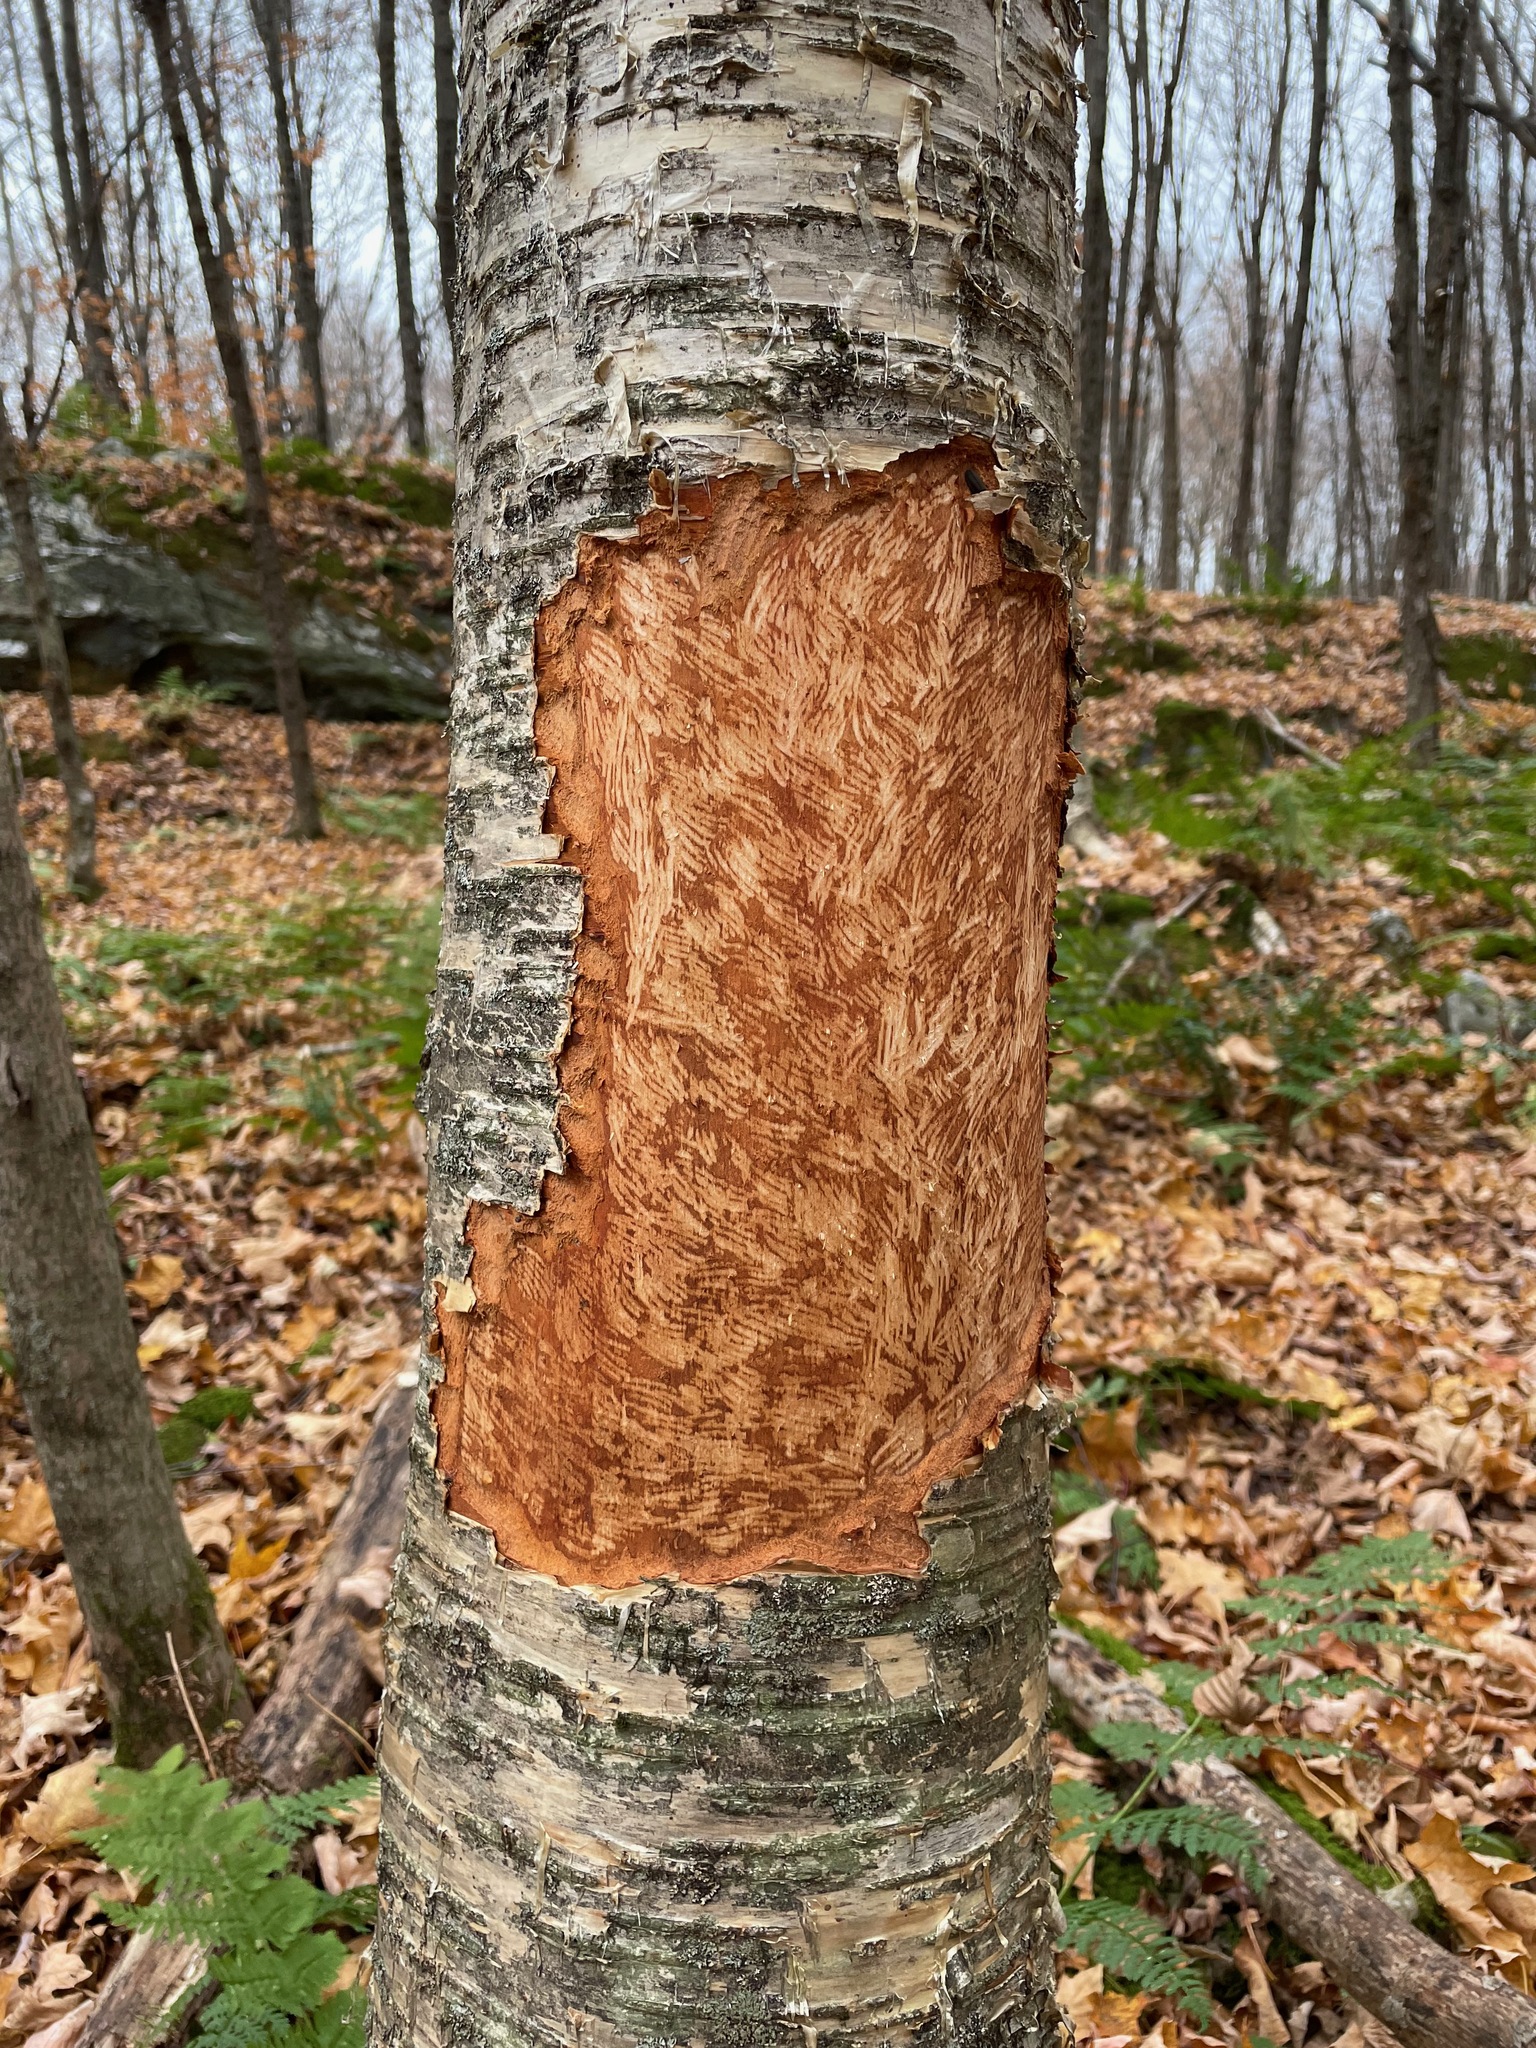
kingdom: Animalia
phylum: Chordata
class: Mammalia
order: Rodentia
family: Erethizontidae
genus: Erethizon
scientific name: Erethizon dorsatus
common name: North american porcupine
